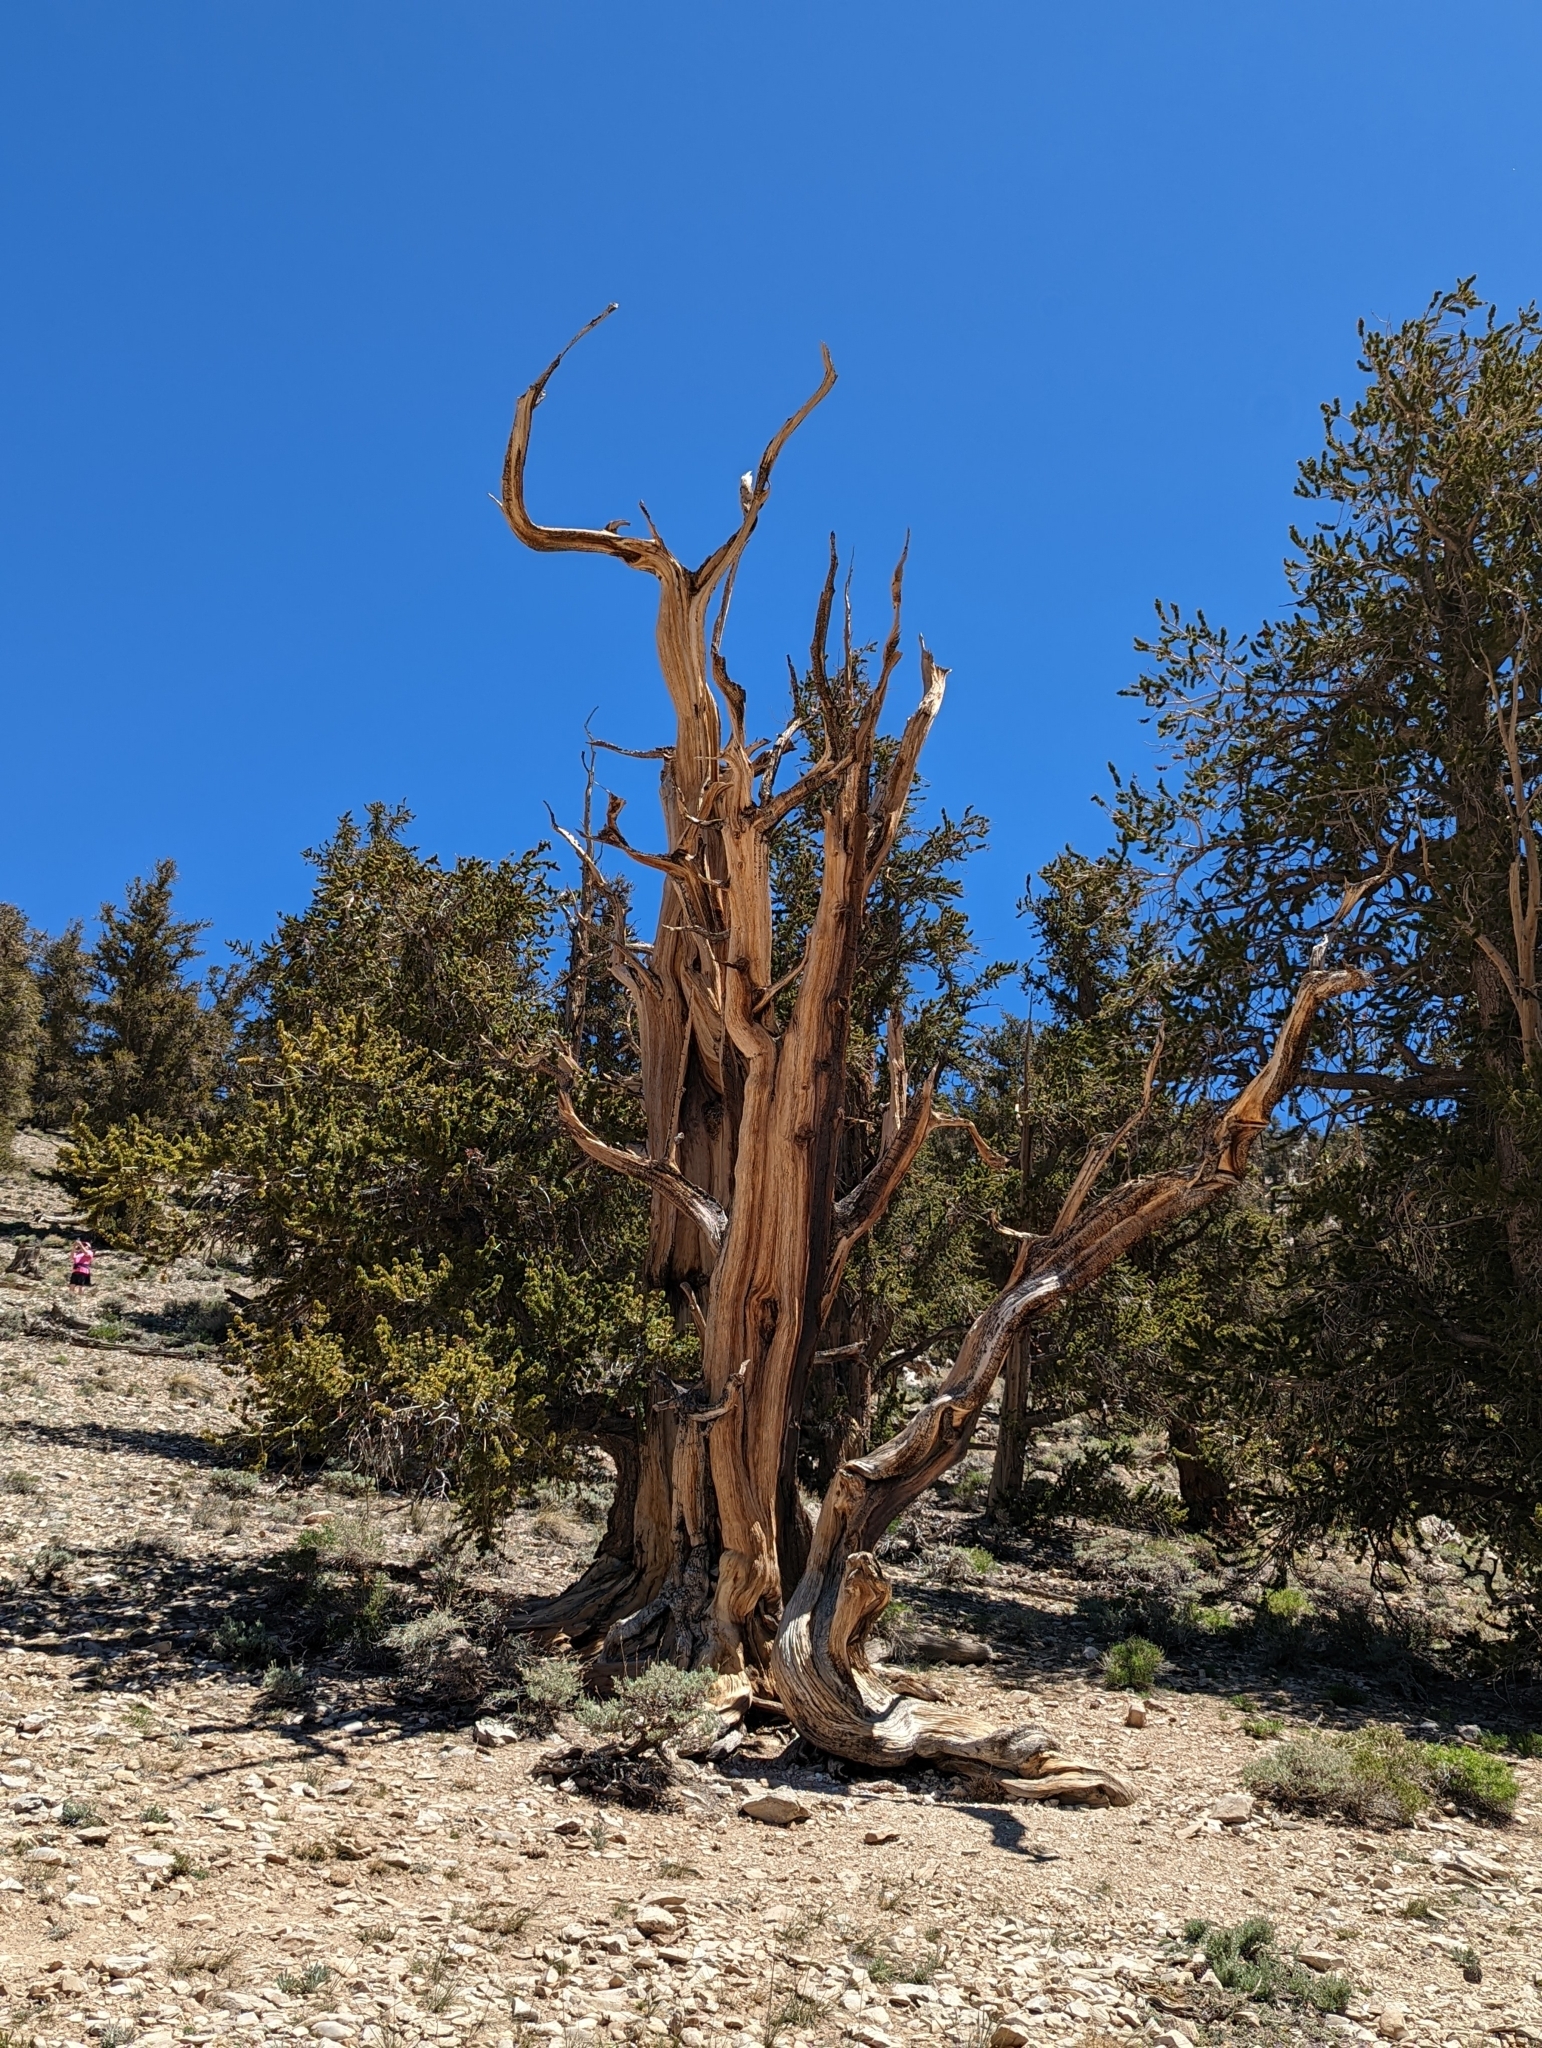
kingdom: Plantae
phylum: Tracheophyta
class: Pinopsida
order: Pinales
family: Pinaceae
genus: Pinus
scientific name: Pinus longaeva
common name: Intermountain bristlecone pine
